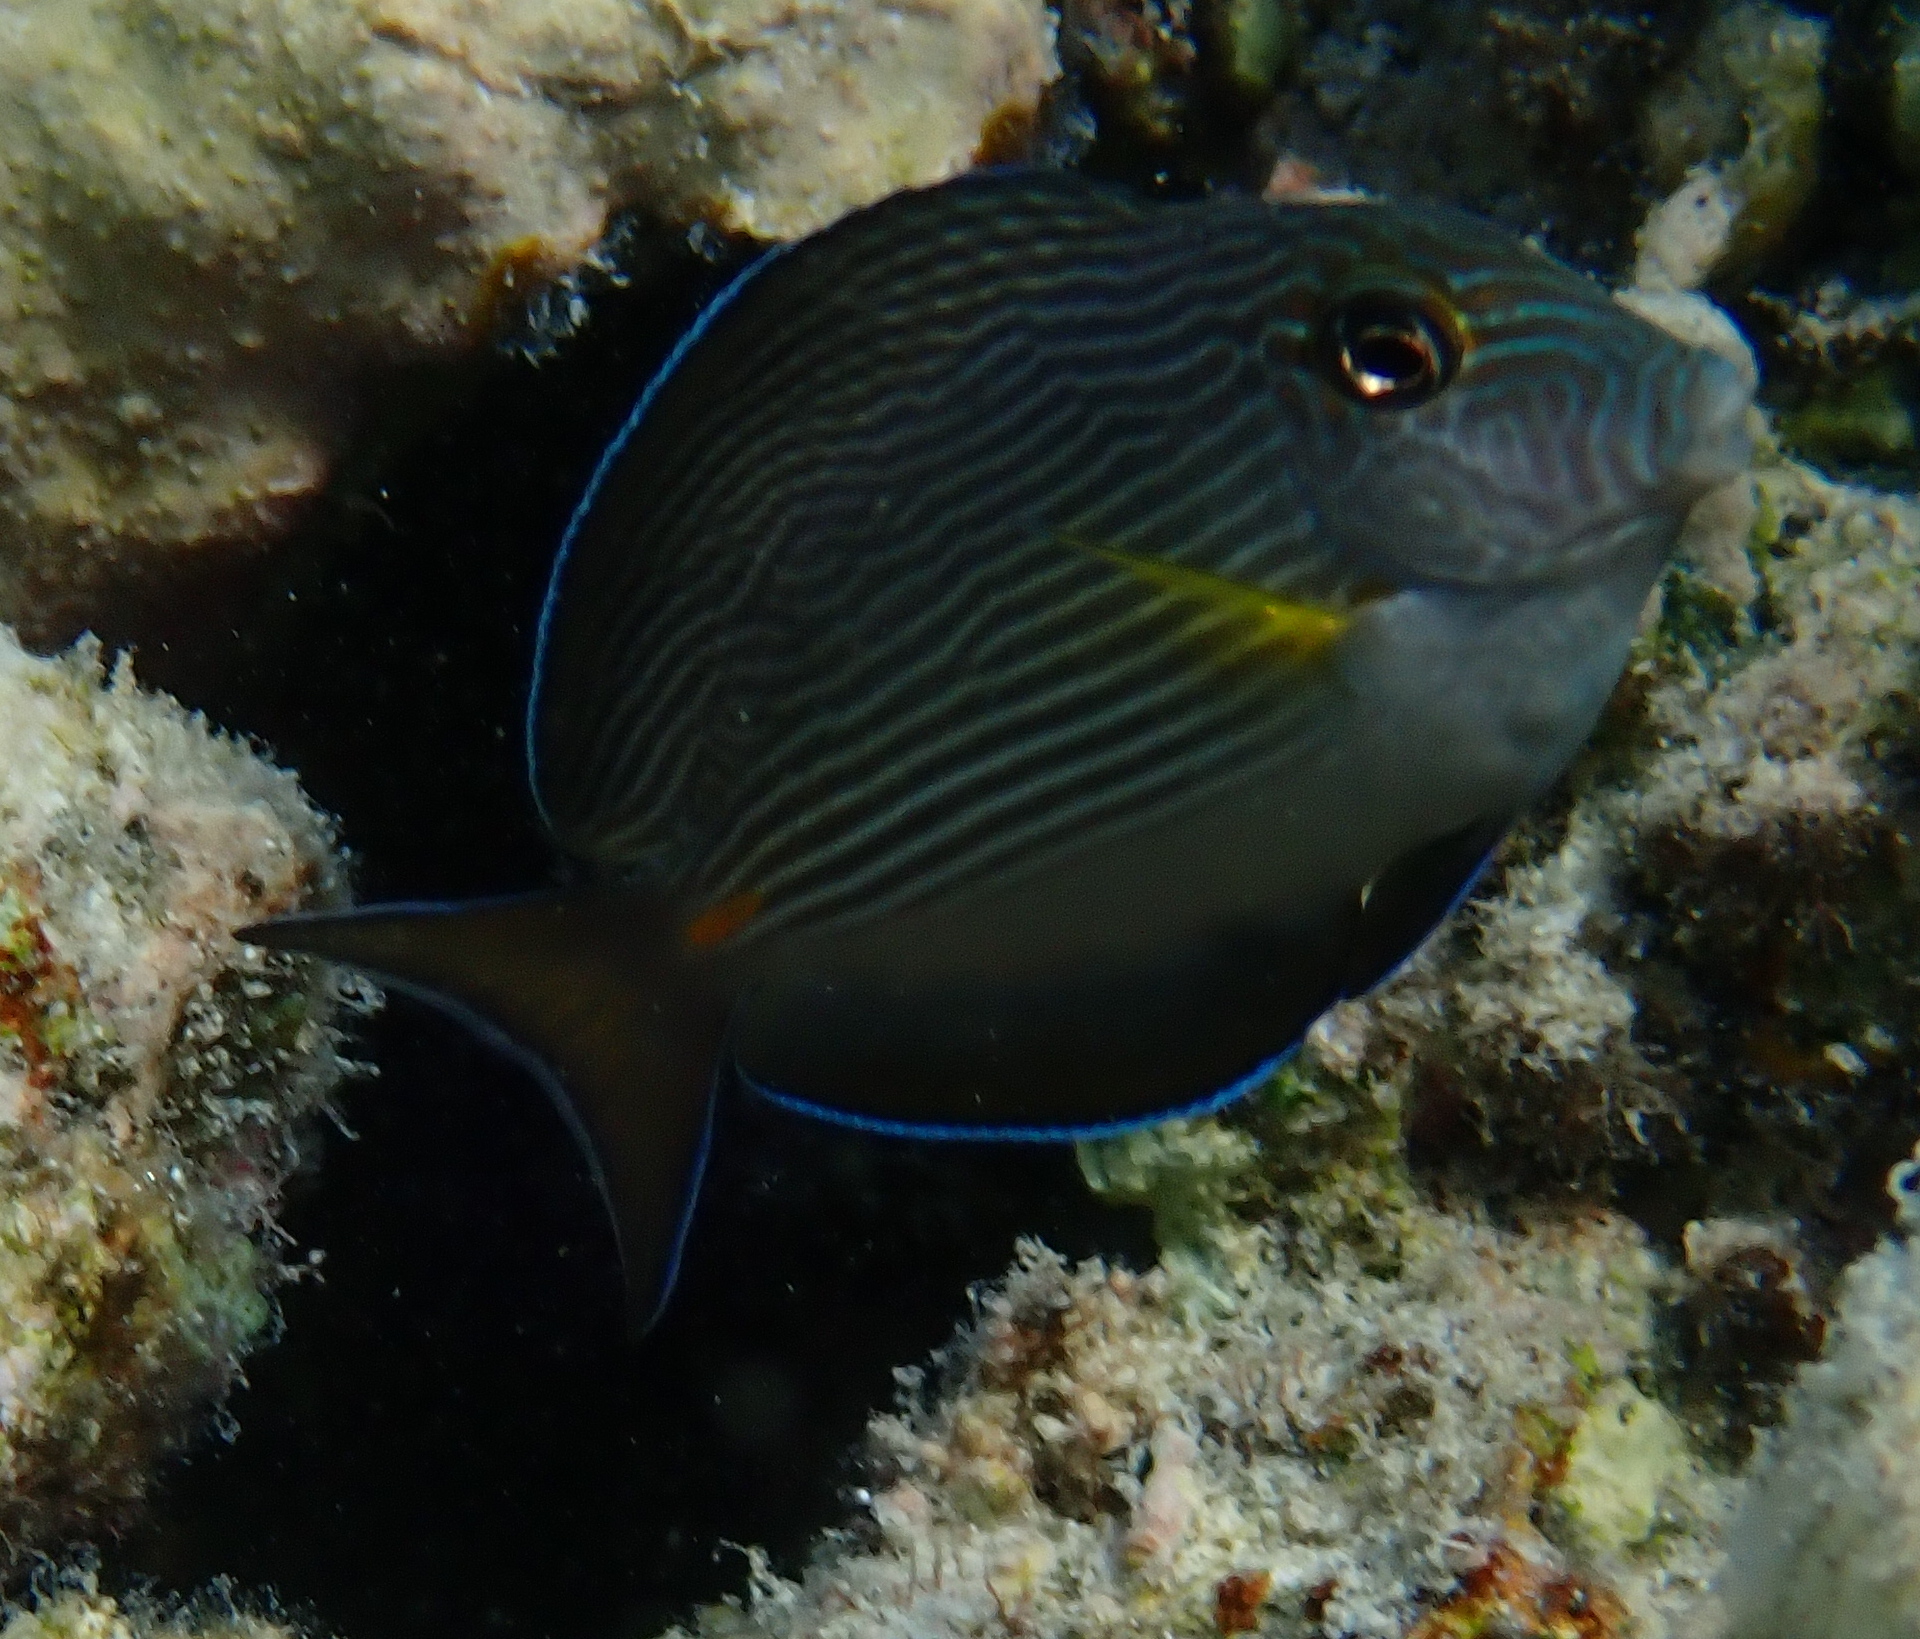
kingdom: Animalia
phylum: Chordata
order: Perciformes
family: Acanthuridae
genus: Acanthurus
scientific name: Acanthurus sohal
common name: Red sea surgeonfish
